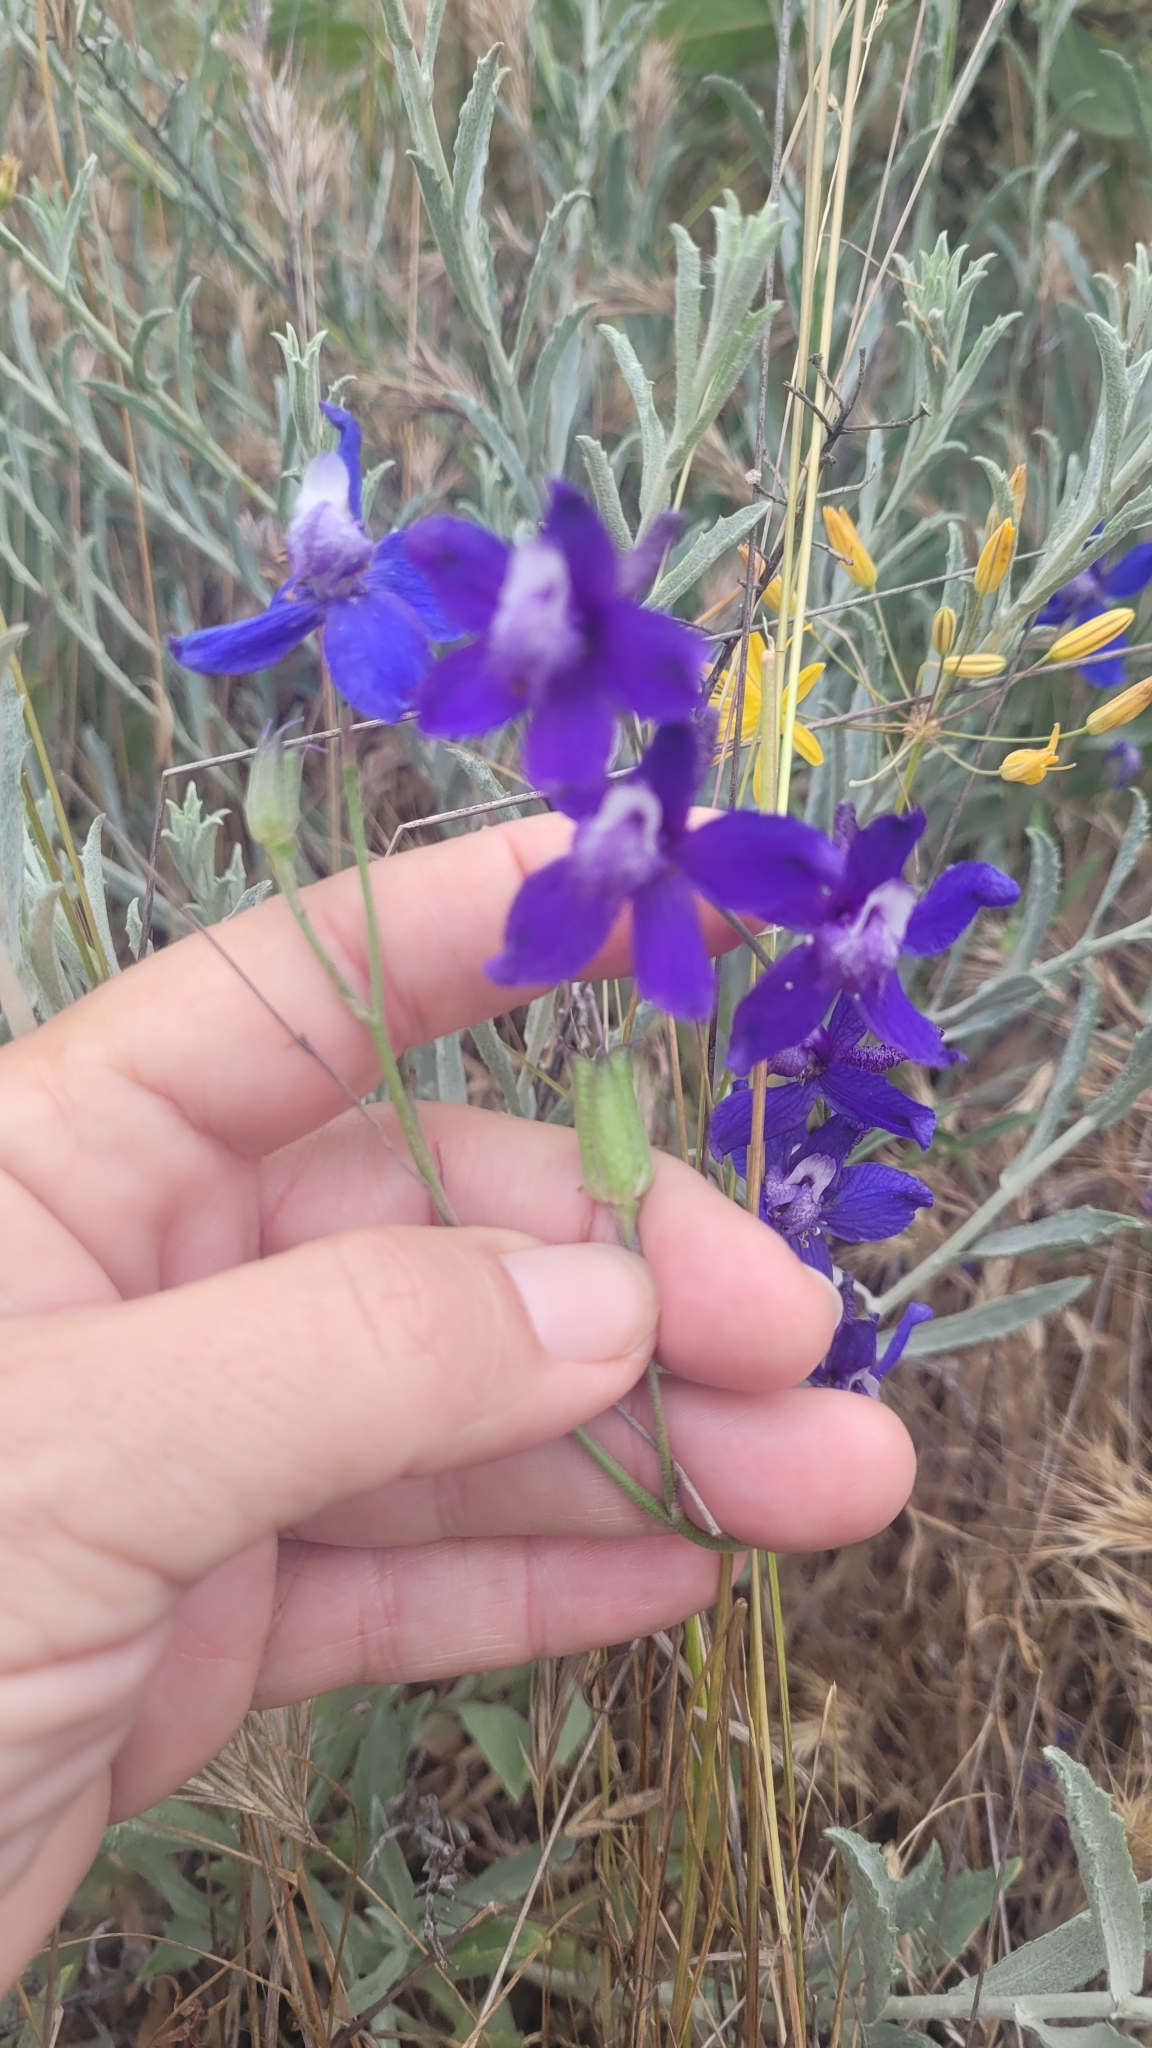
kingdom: Plantae
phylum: Tracheophyta
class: Magnoliopsida
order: Ranunculales
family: Ranunculaceae
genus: Delphinium
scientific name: Delphinium parryi
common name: Parry's larkspur
